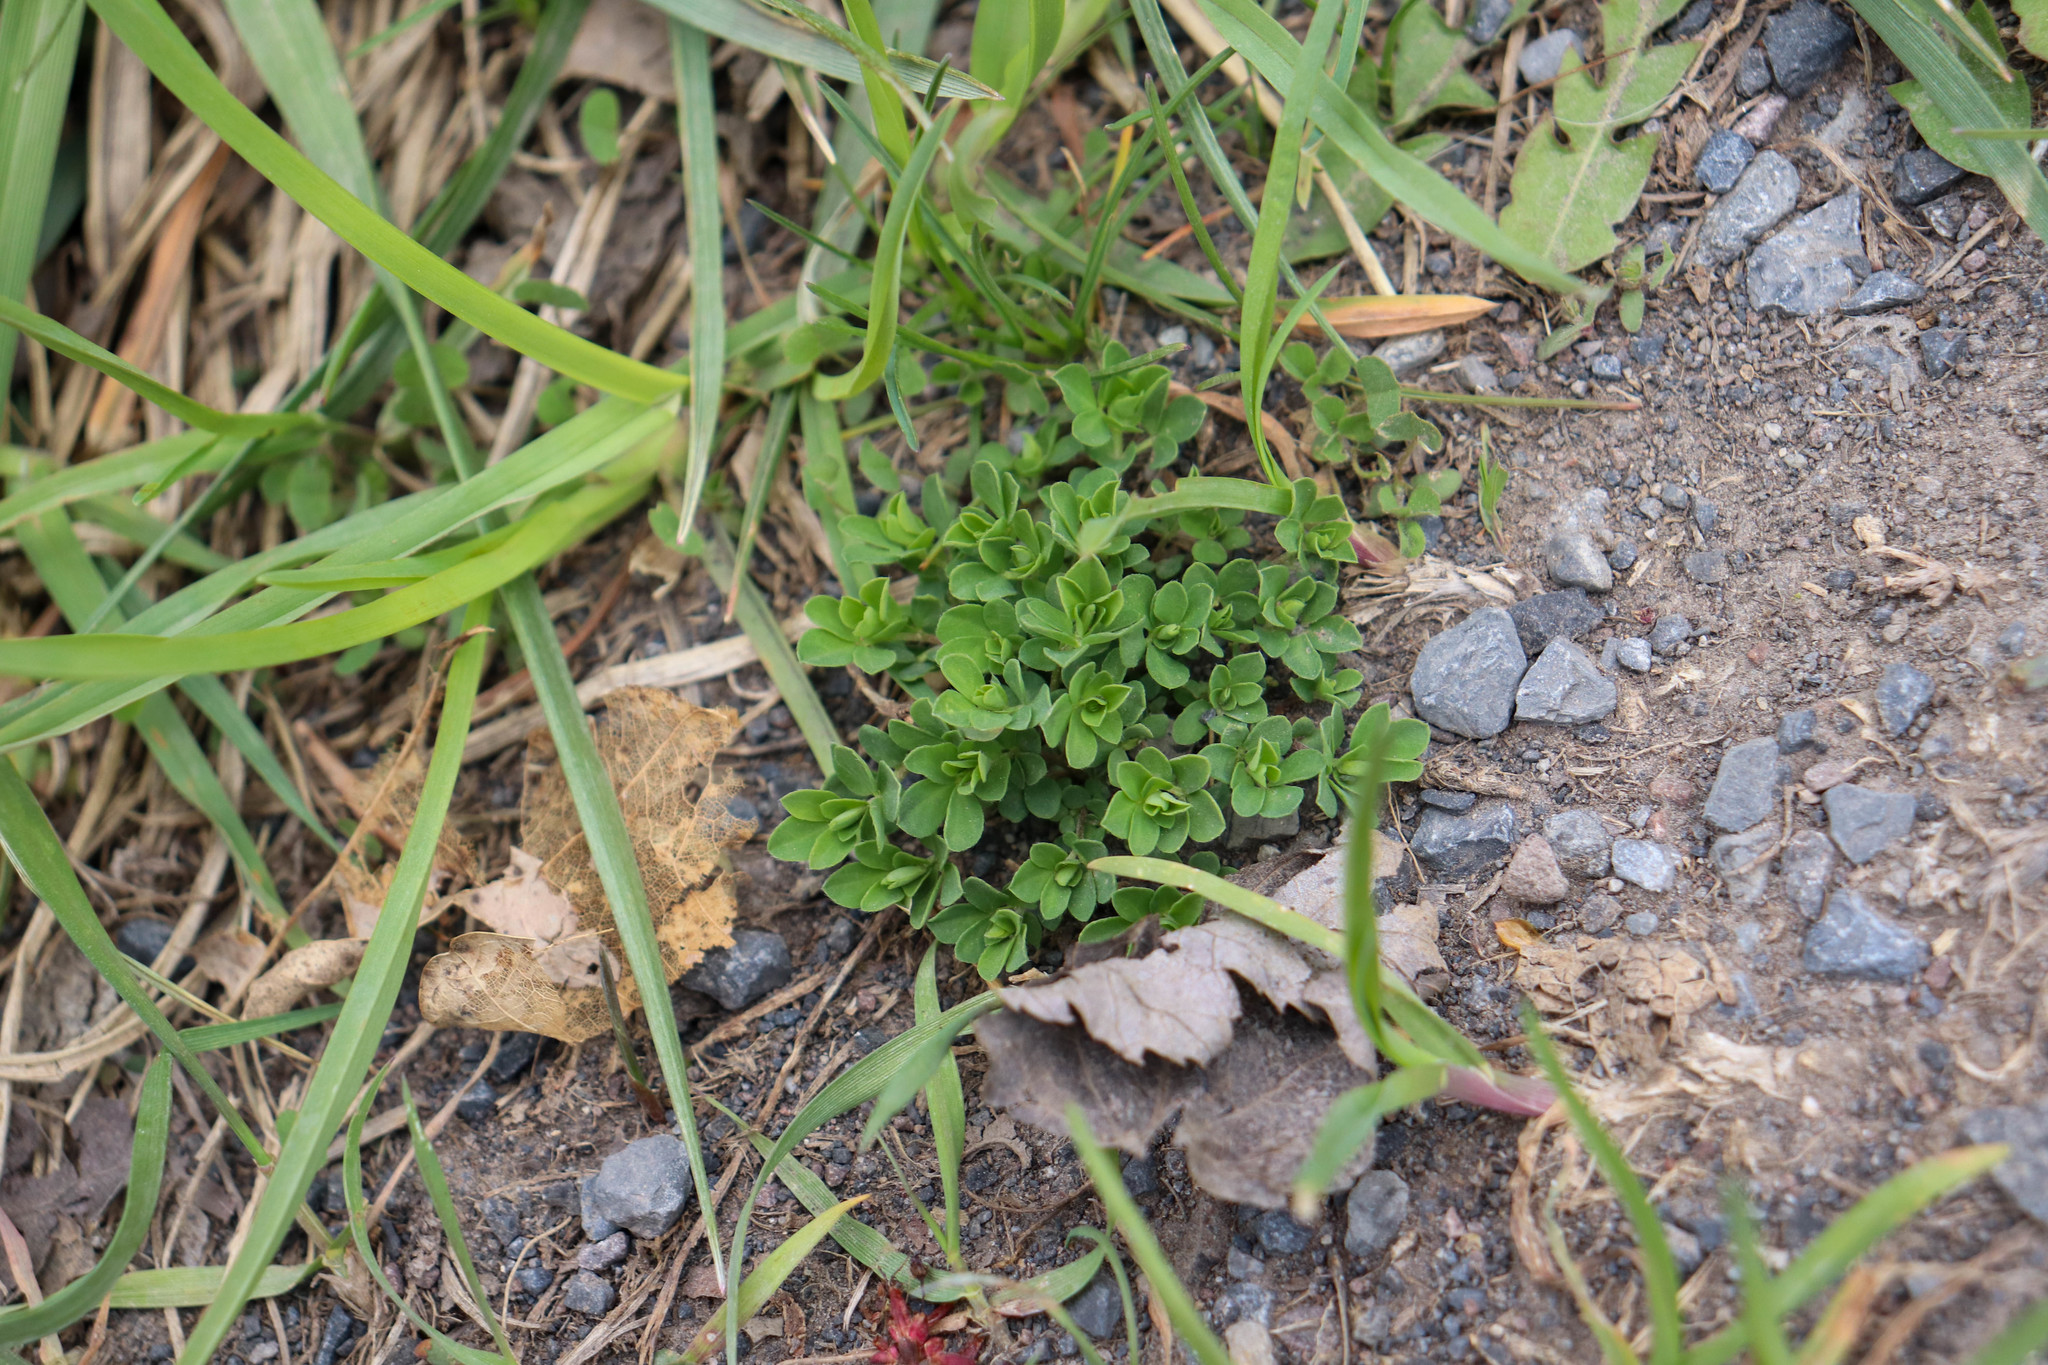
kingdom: Plantae
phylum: Tracheophyta
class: Magnoliopsida
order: Fabales
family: Fabaceae
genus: Lotus
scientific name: Lotus corniculatus
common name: Common bird's-foot-trefoil
